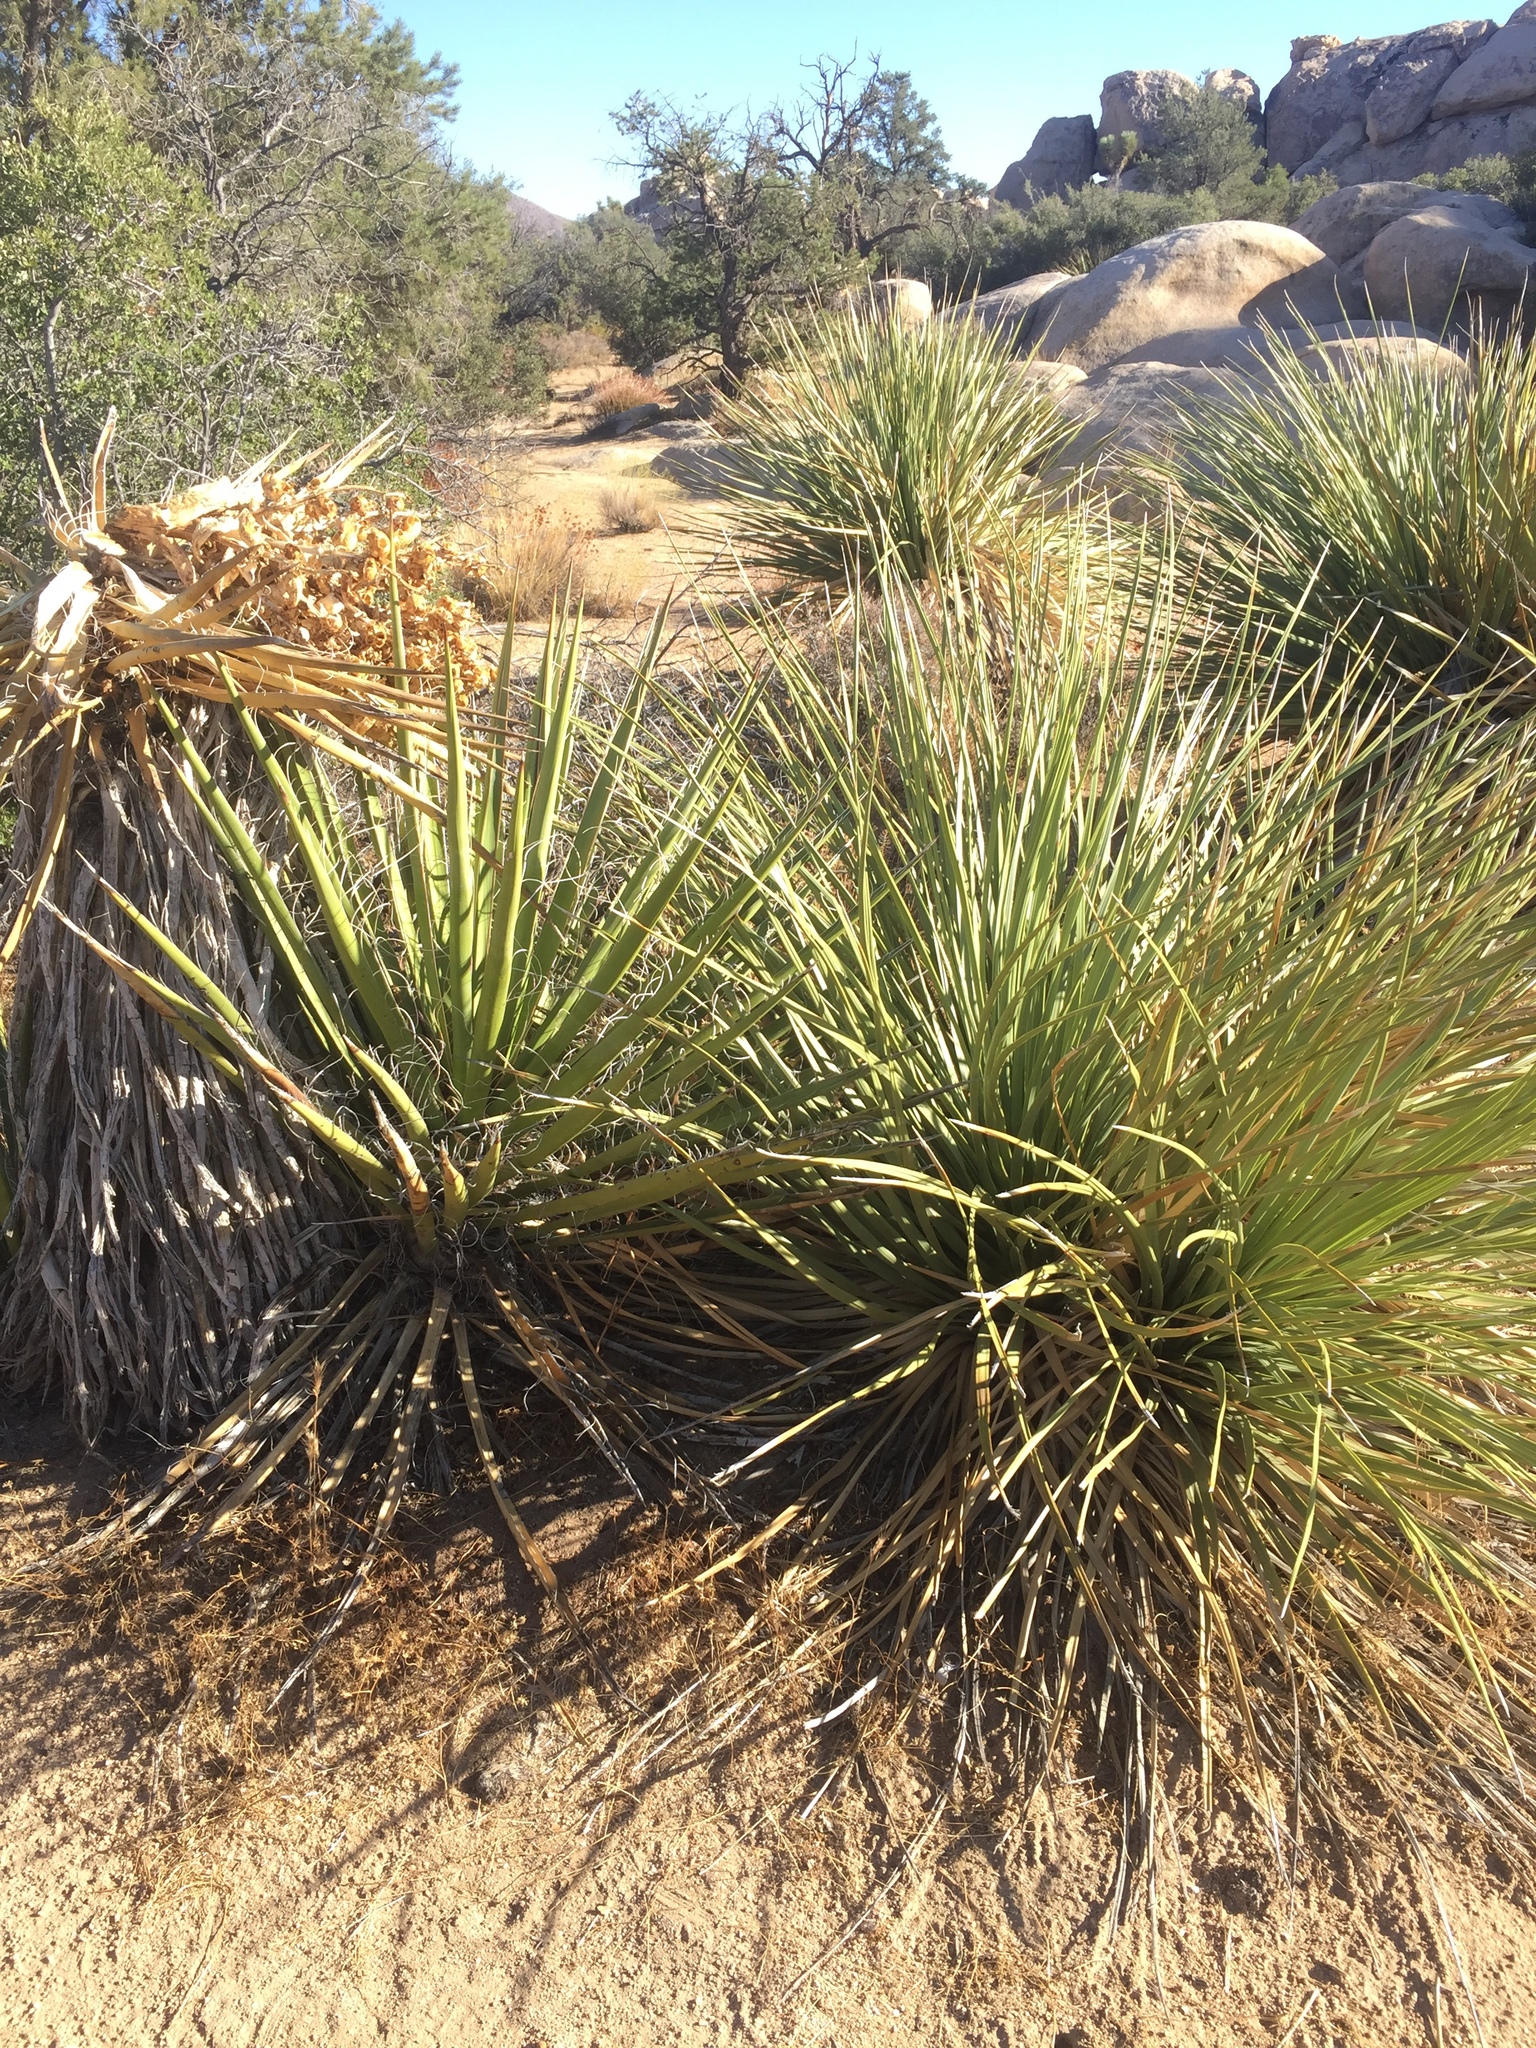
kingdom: Plantae
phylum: Tracheophyta
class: Liliopsida
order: Asparagales
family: Asparagaceae
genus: Yucca
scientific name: Yucca schidigera
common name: Mojave yucca
